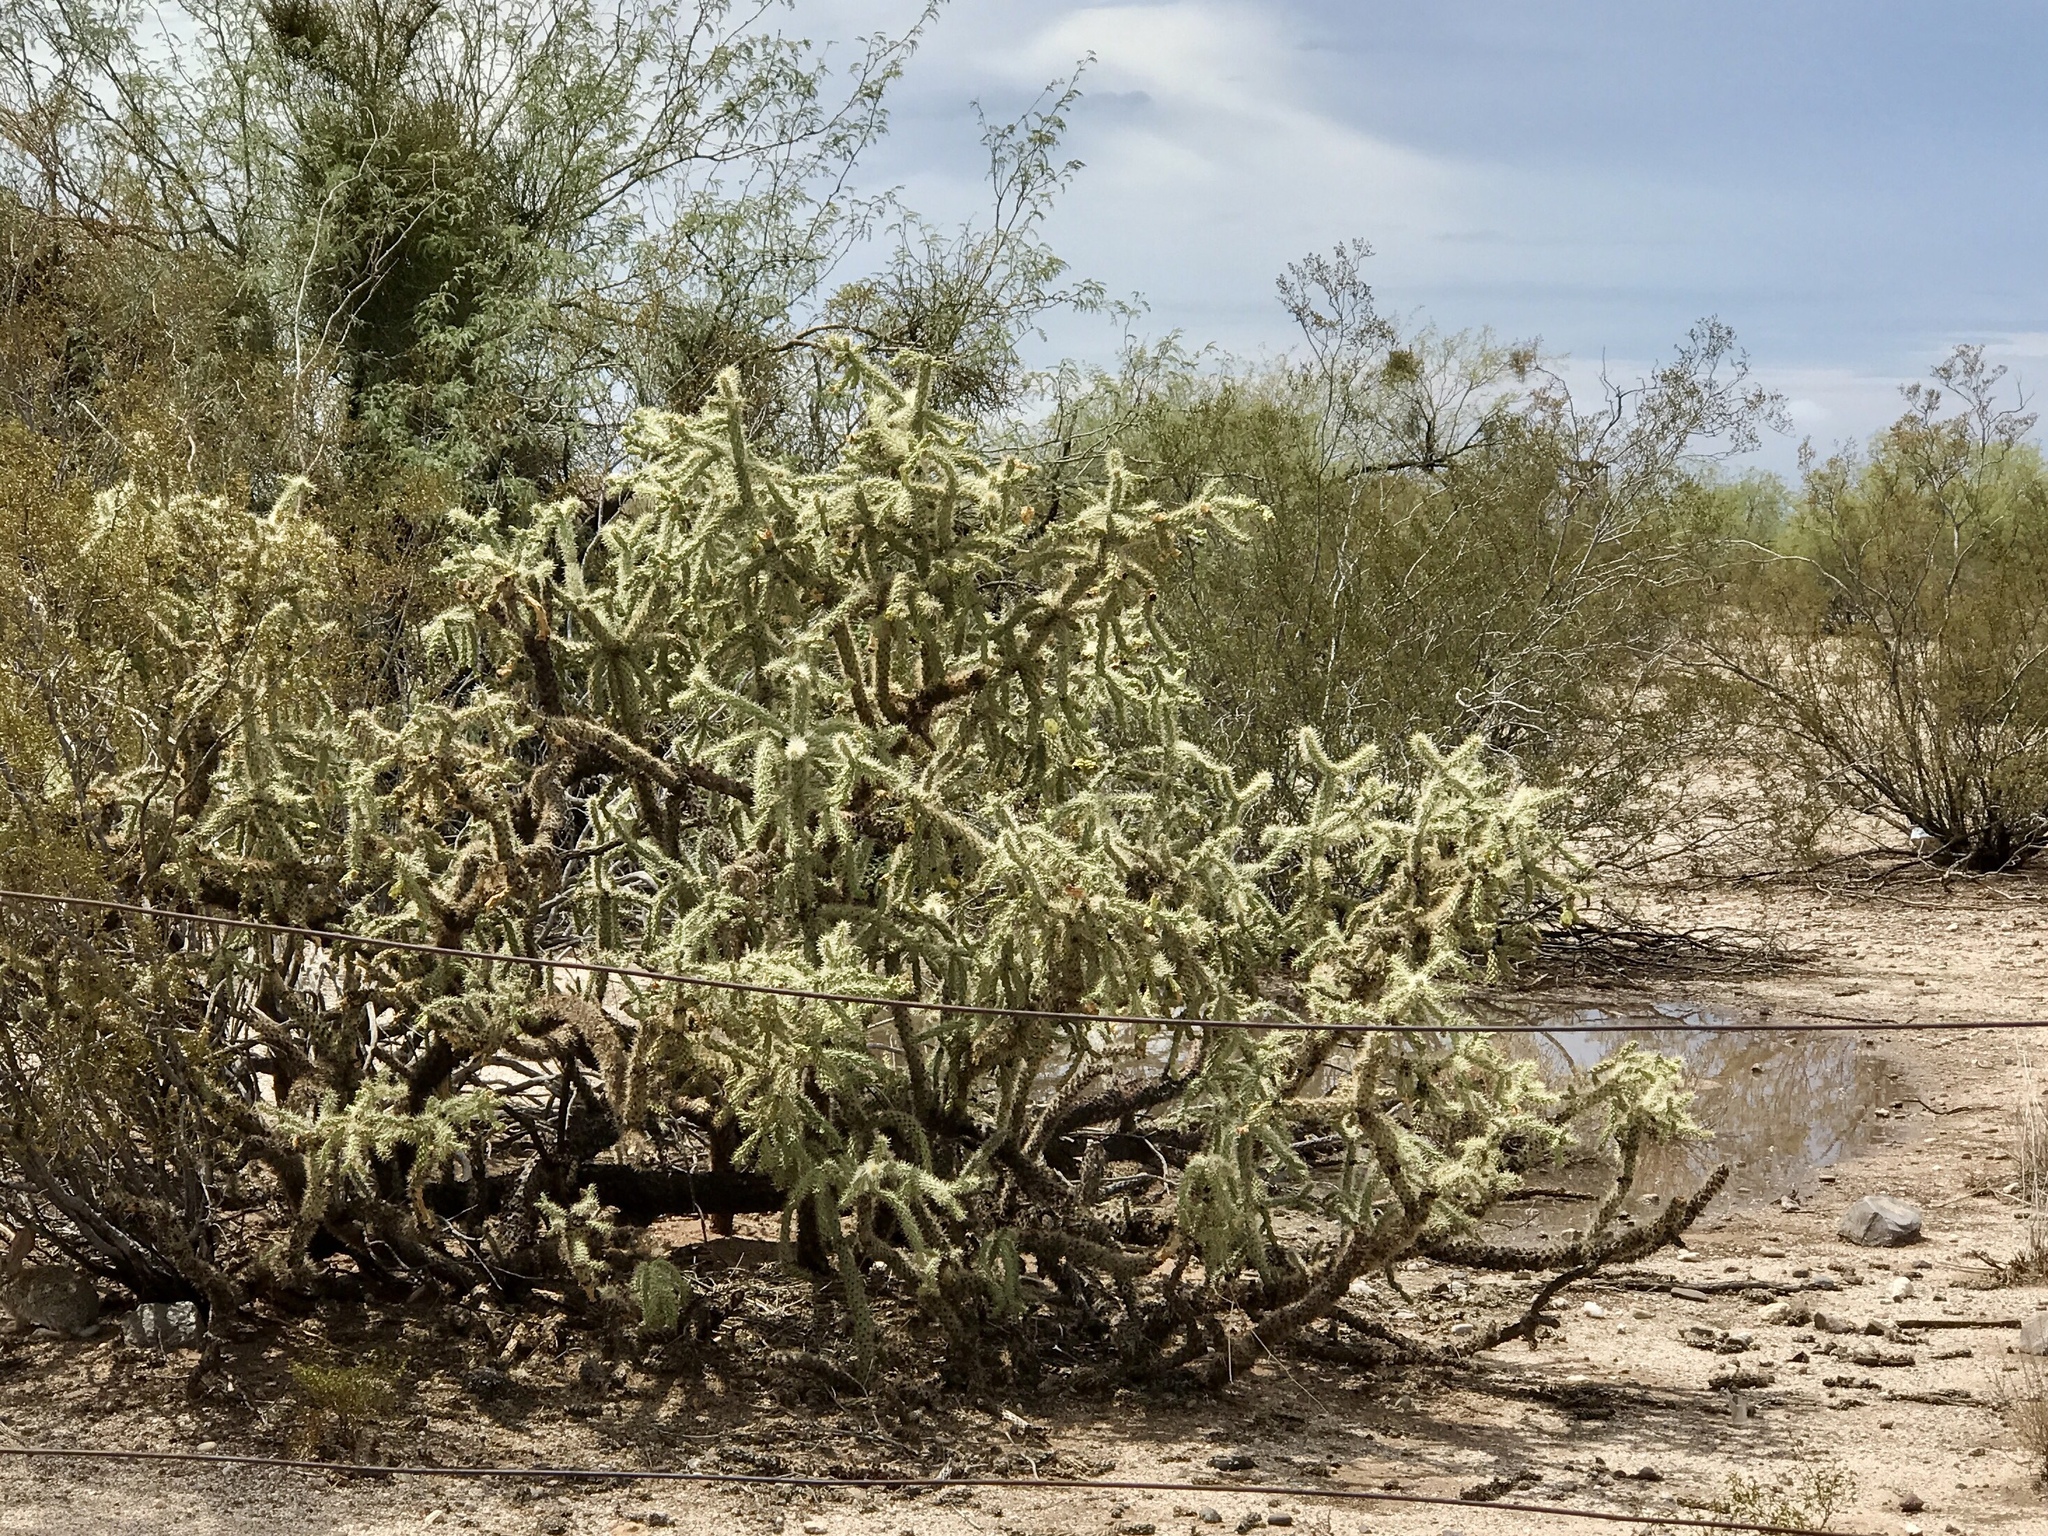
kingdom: Plantae
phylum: Tracheophyta
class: Magnoliopsida
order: Caryophyllales
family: Cactaceae
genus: Cylindropuntia
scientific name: Cylindropuntia imbricata
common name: Candelabrum cactus
